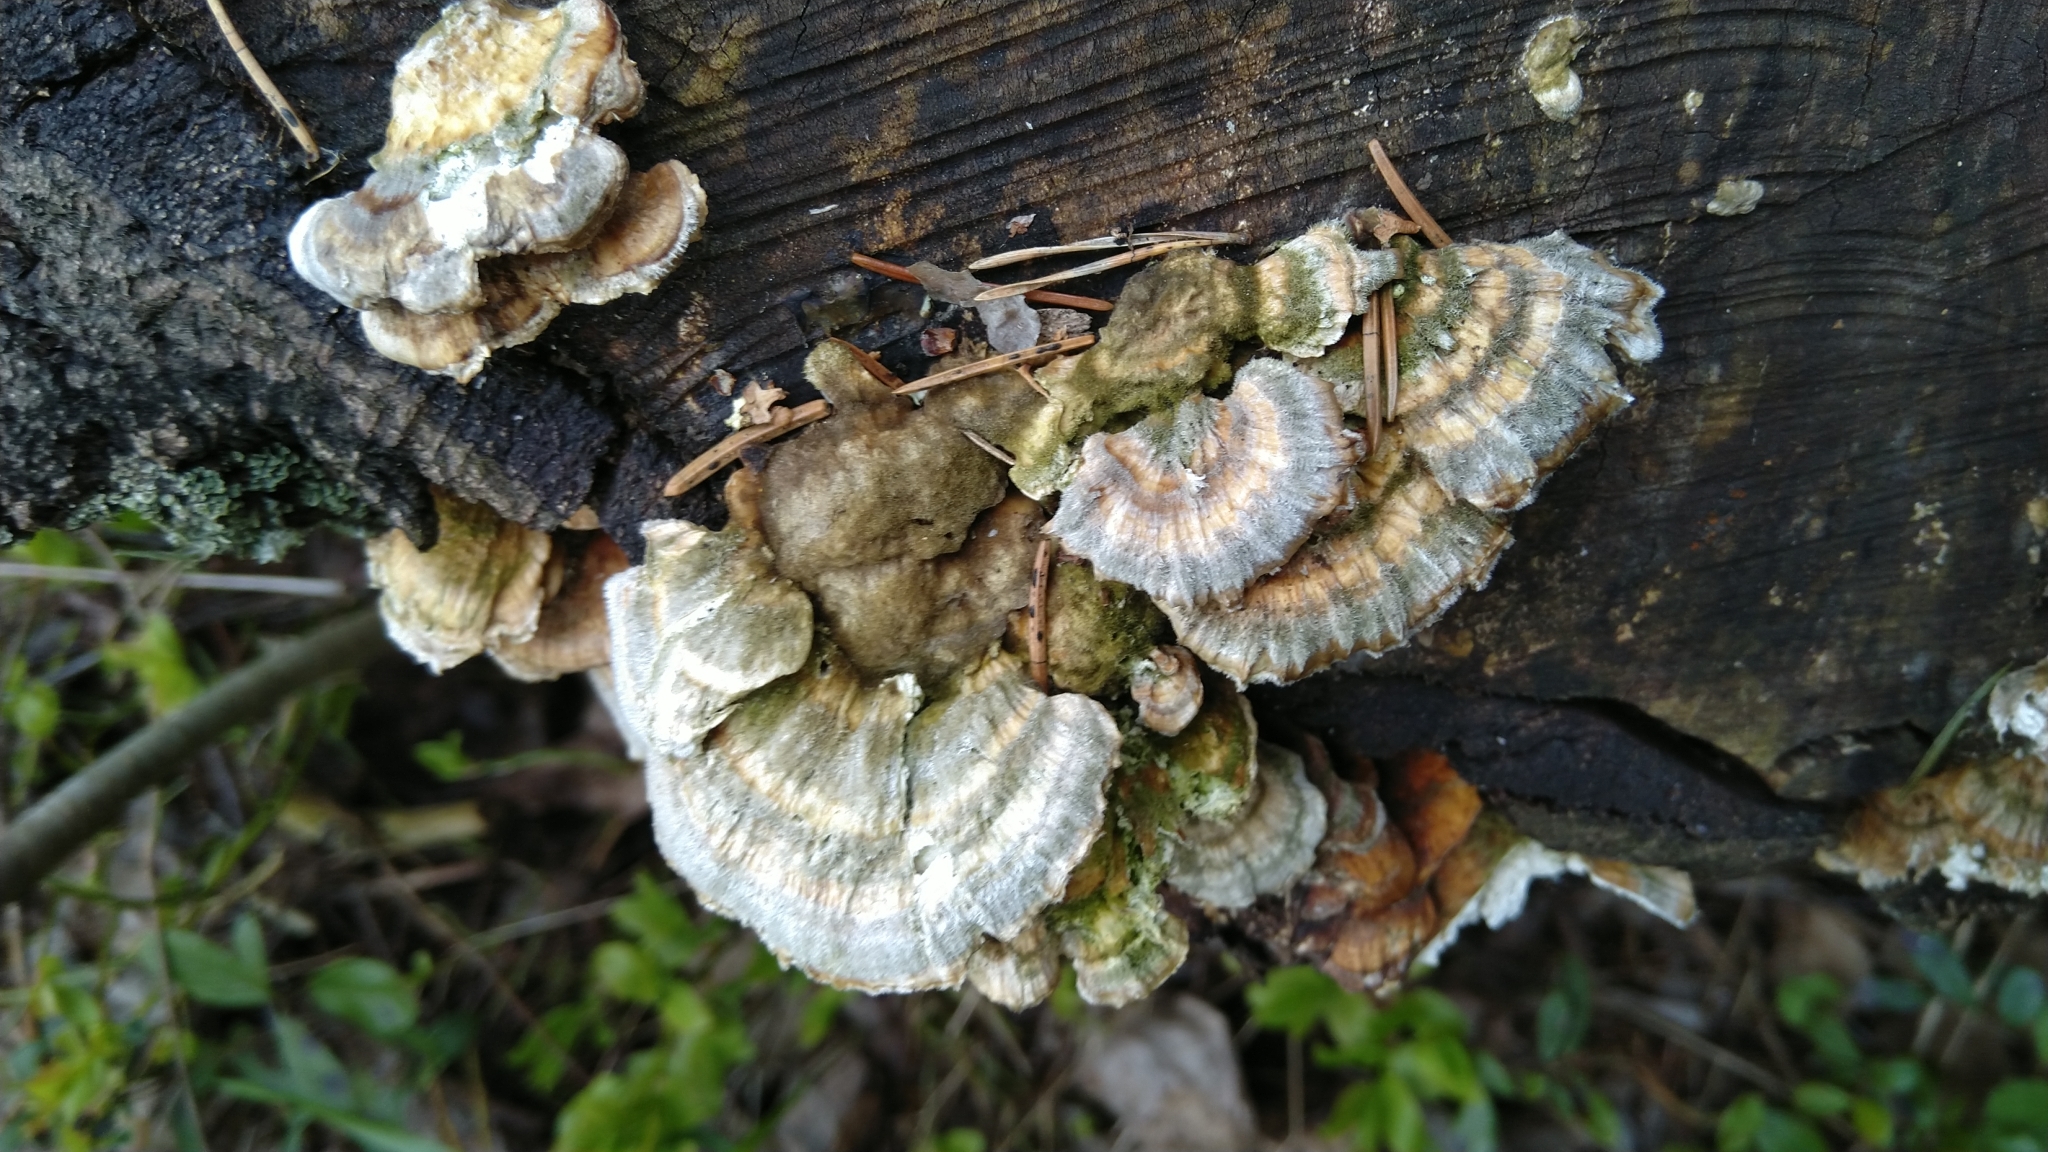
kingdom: Fungi
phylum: Basidiomycota
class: Agaricomycetes
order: Polyporales
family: Polyporaceae
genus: Trametes
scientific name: Trametes ochracea
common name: Ochre bracket
